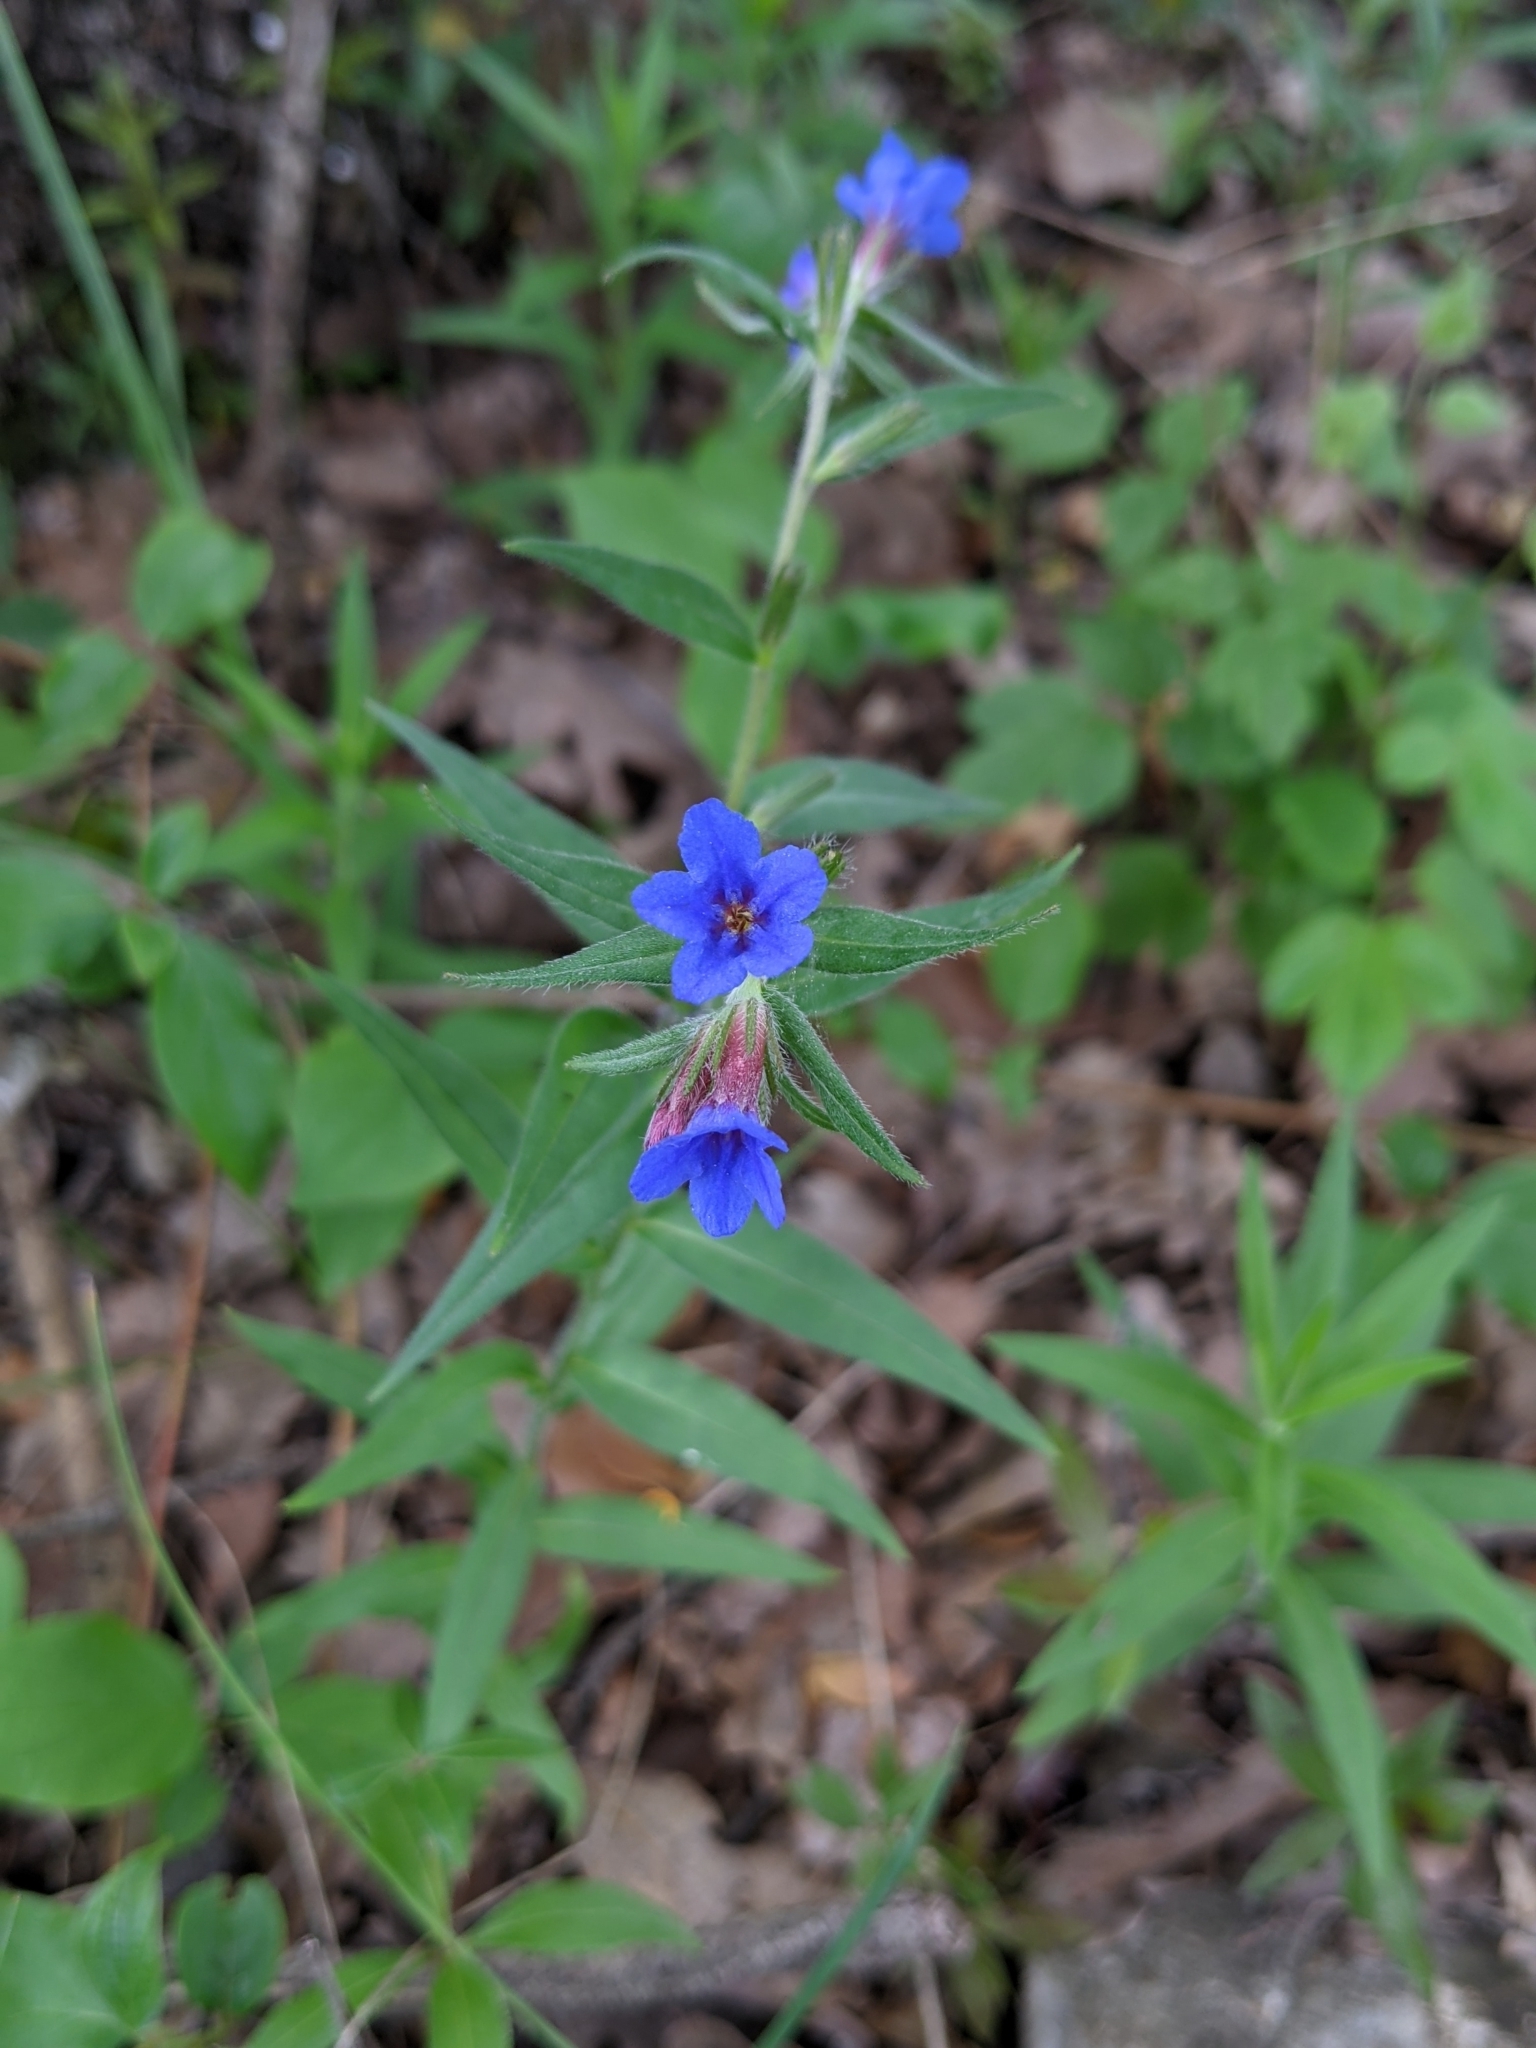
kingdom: Plantae
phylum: Tracheophyta
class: Magnoliopsida
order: Boraginales
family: Boraginaceae
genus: Aegonychon
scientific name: Aegonychon purpurocaeruleum
